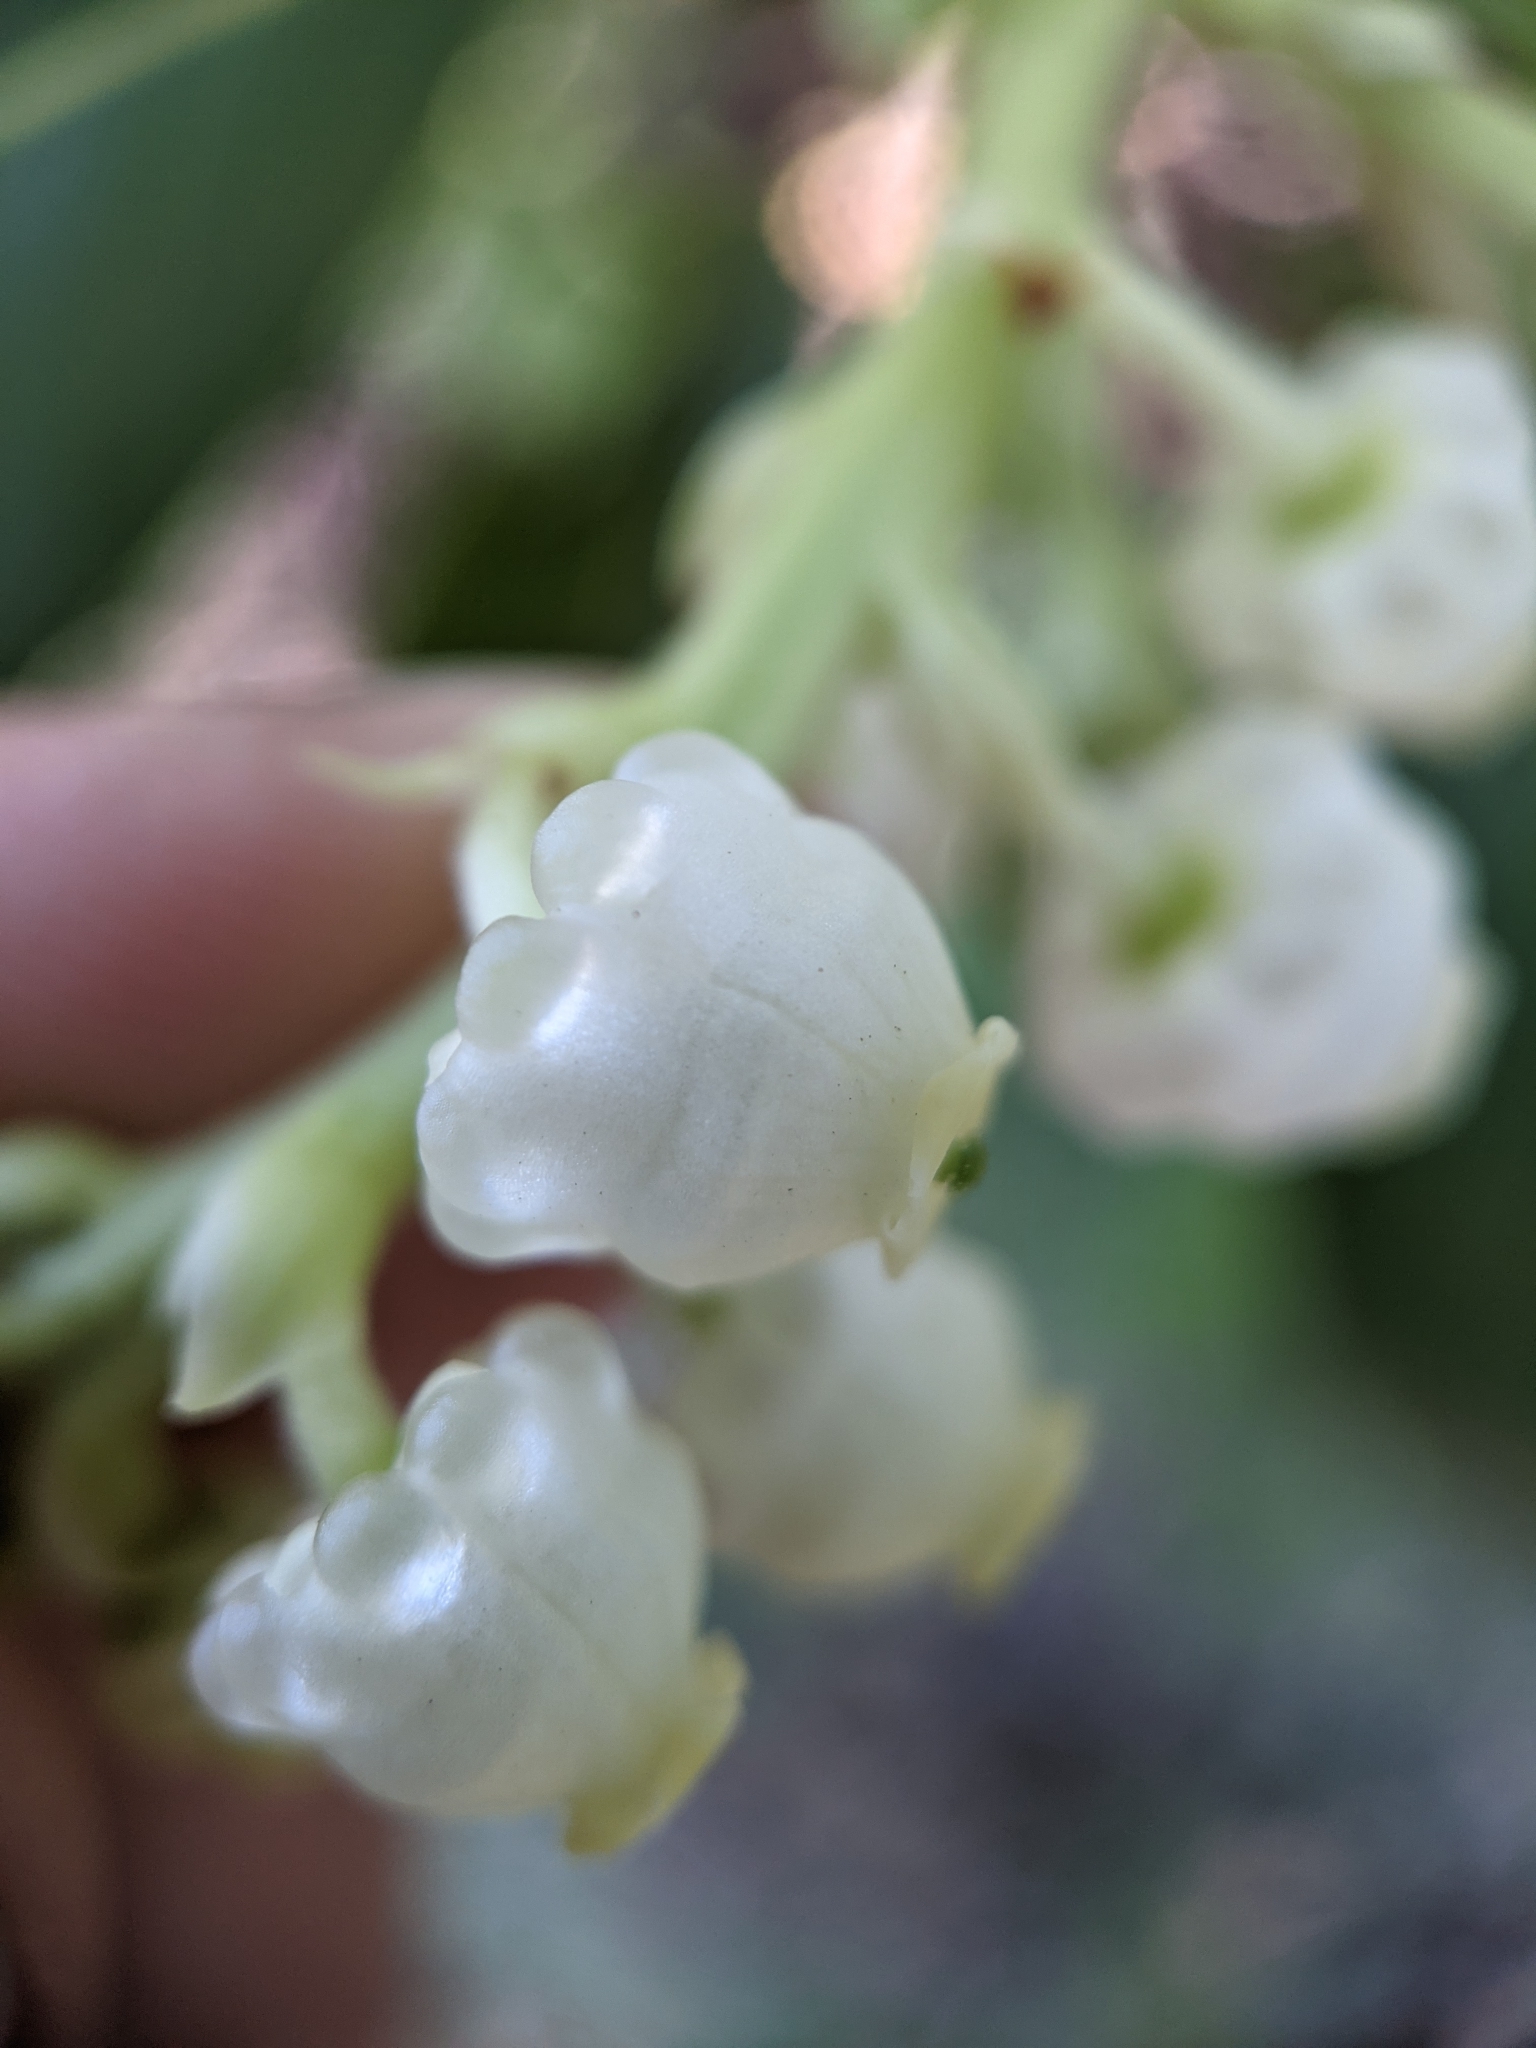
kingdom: Plantae
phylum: Tracheophyta
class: Magnoliopsida
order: Ericales
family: Ericaceae
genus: Arbutus
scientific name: Arbutus menziesii
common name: Pacific madrone
